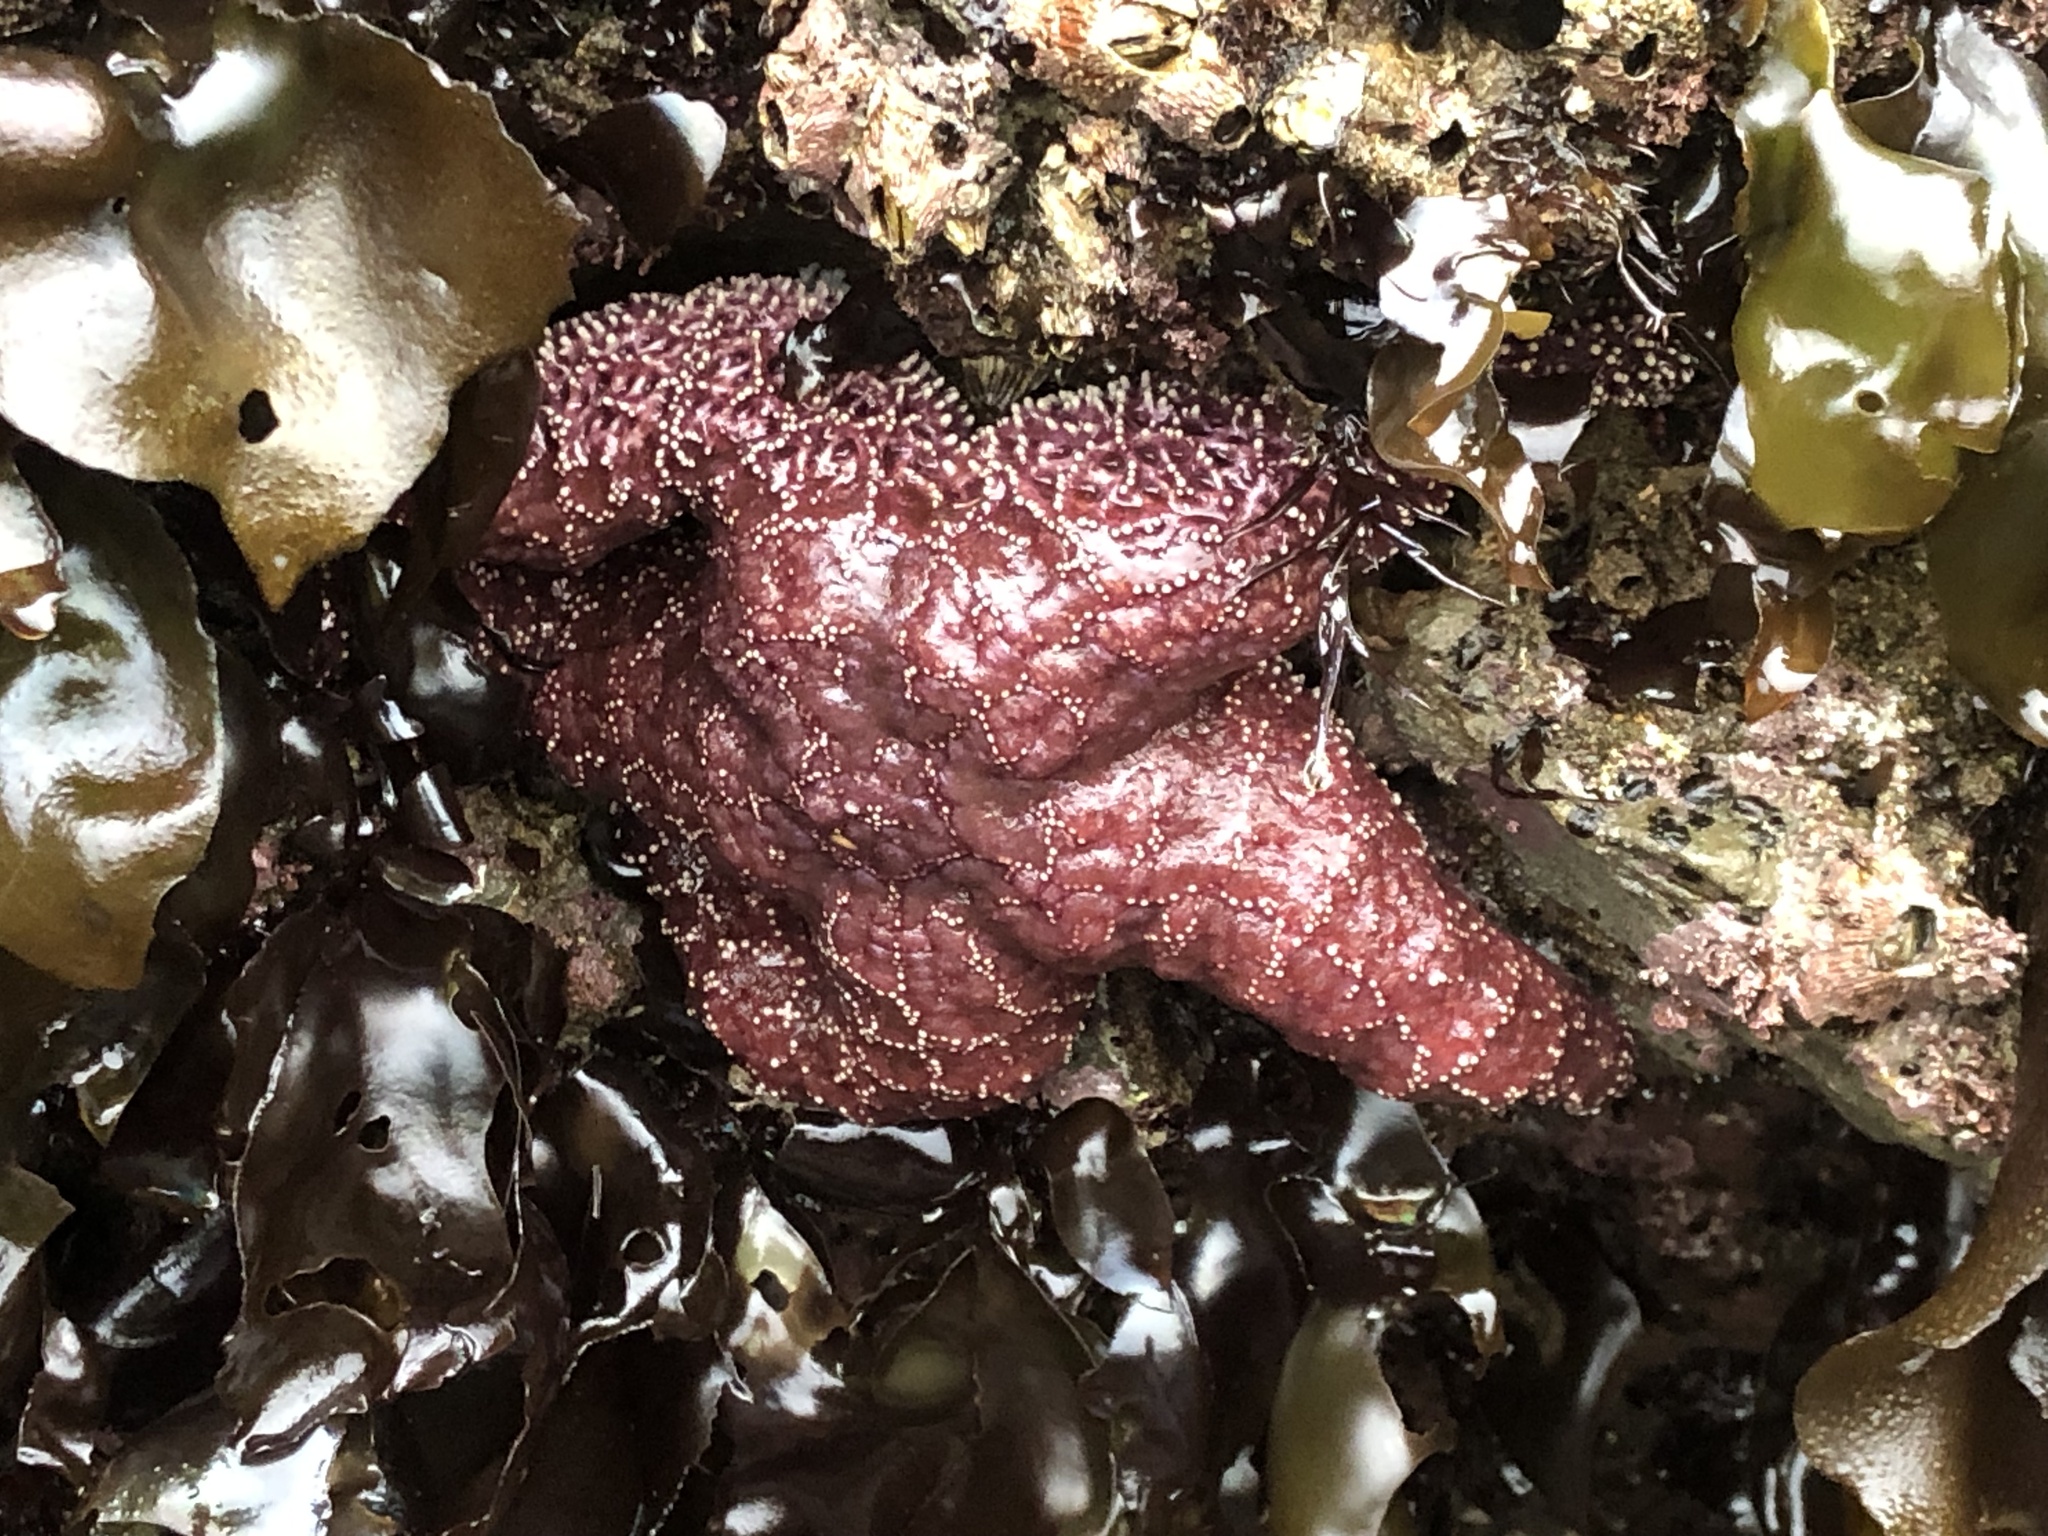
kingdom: Animalia
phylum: Echinodermata
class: Asteroidea
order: Forcipulatida
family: Asteriidae
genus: Pisaster
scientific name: Pisaster ochraceus
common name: Ochre stars
